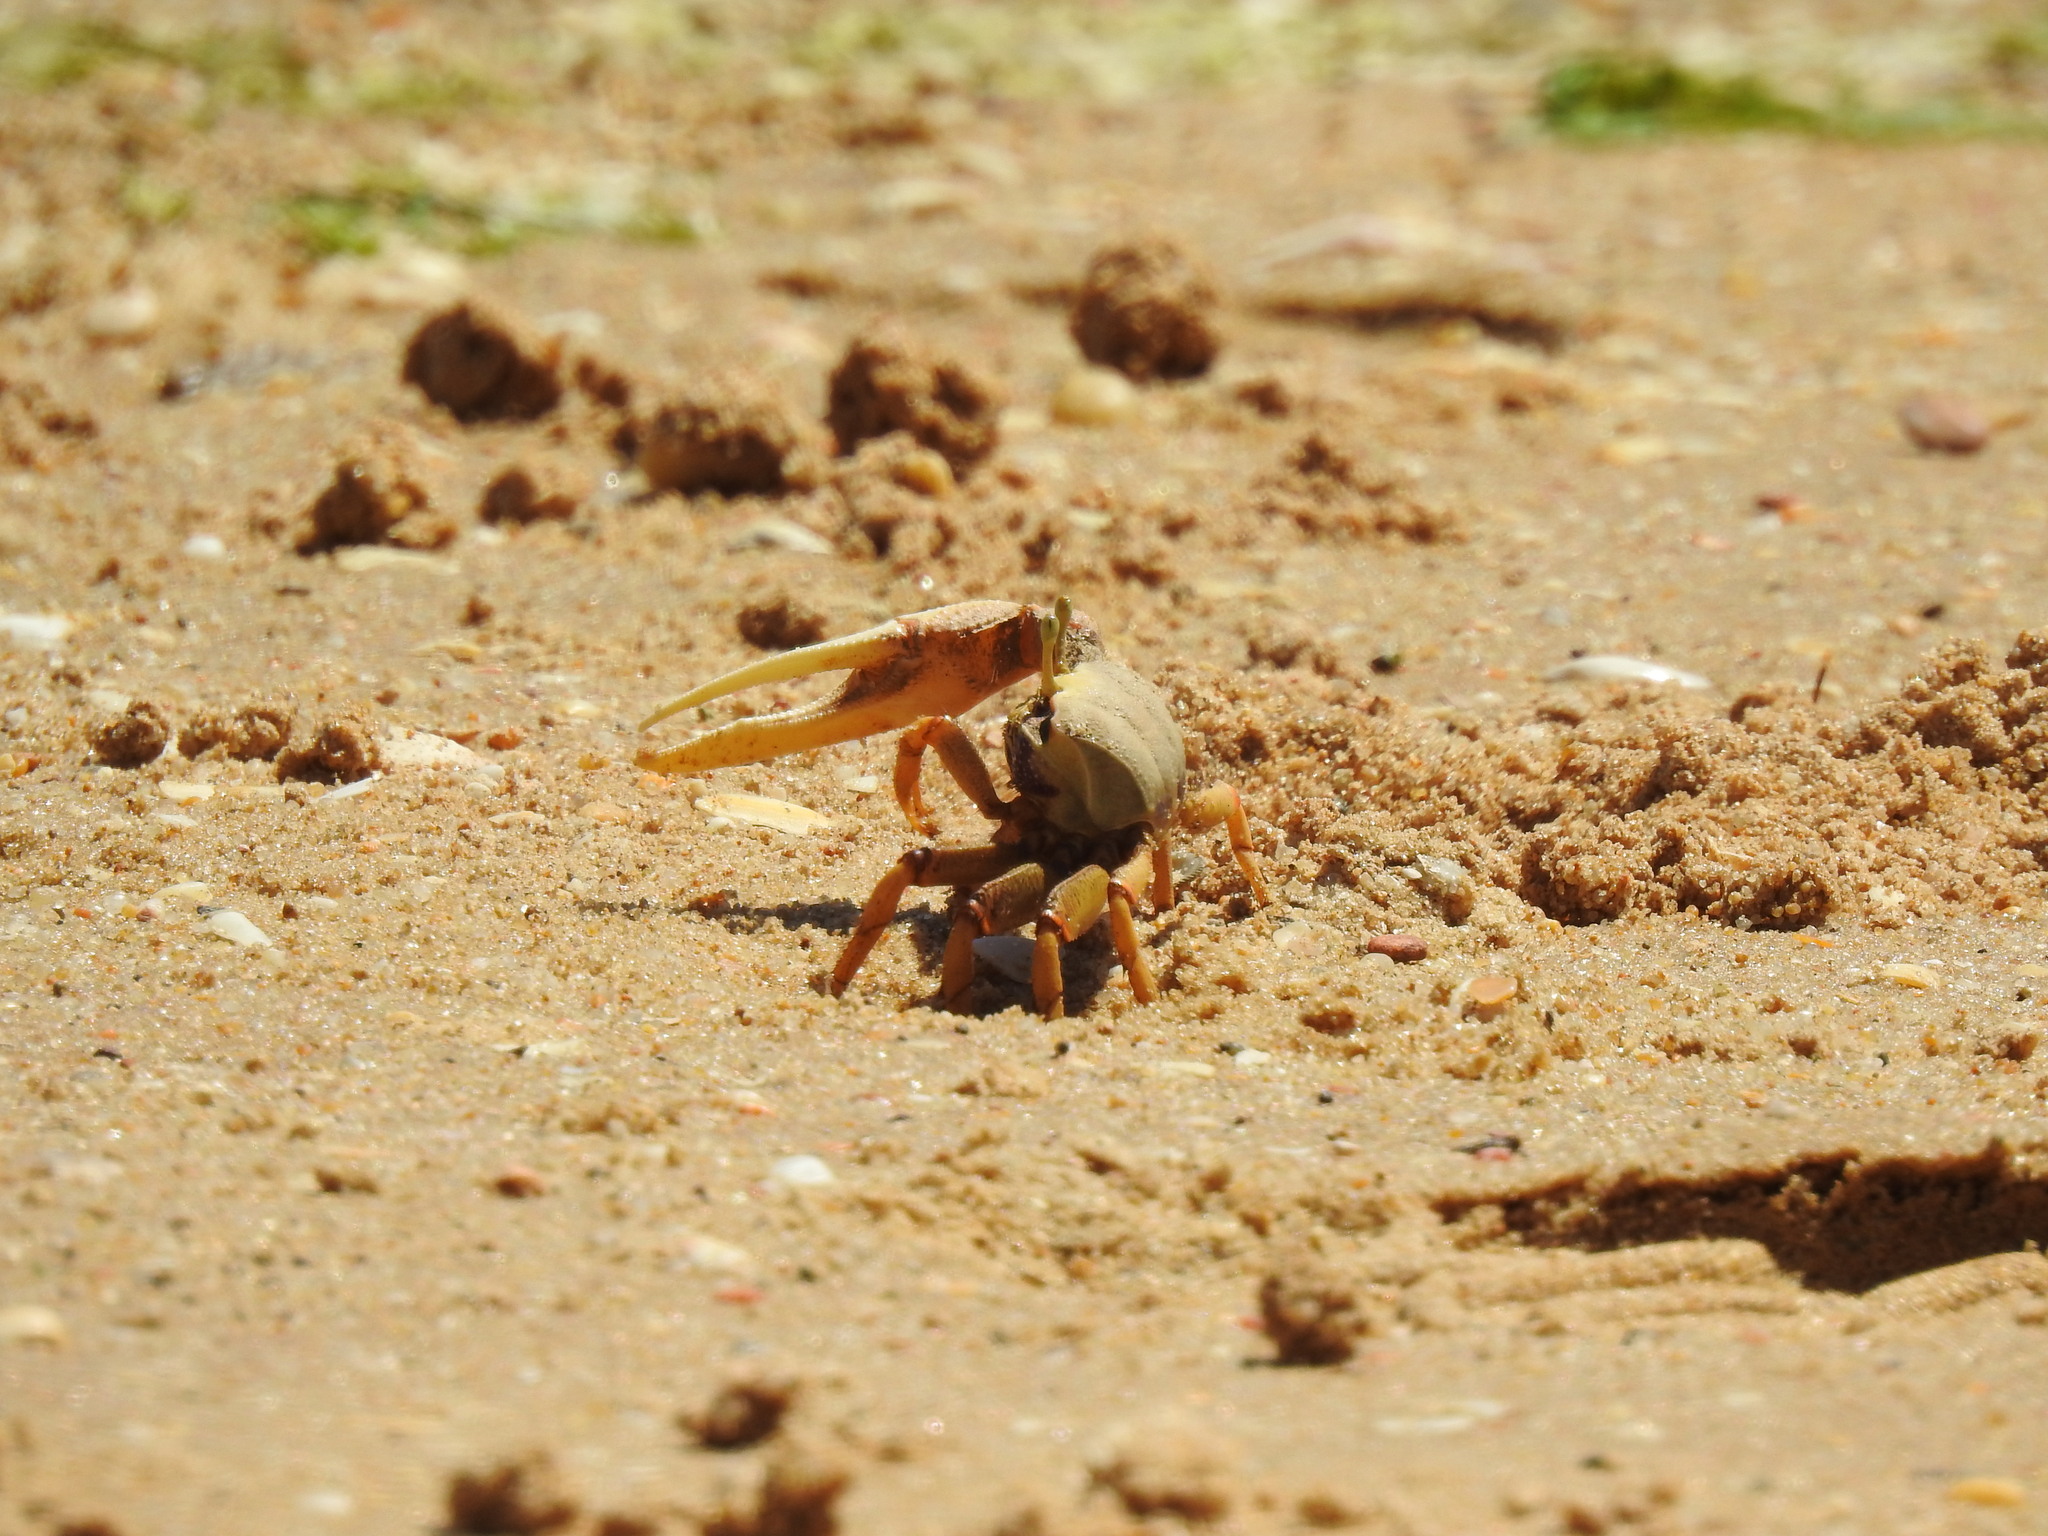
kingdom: Animalia
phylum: Arthropoda
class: Malacostraca
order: Decapoda
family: Ocypodidae
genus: Afruca
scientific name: Afruca tangeri
